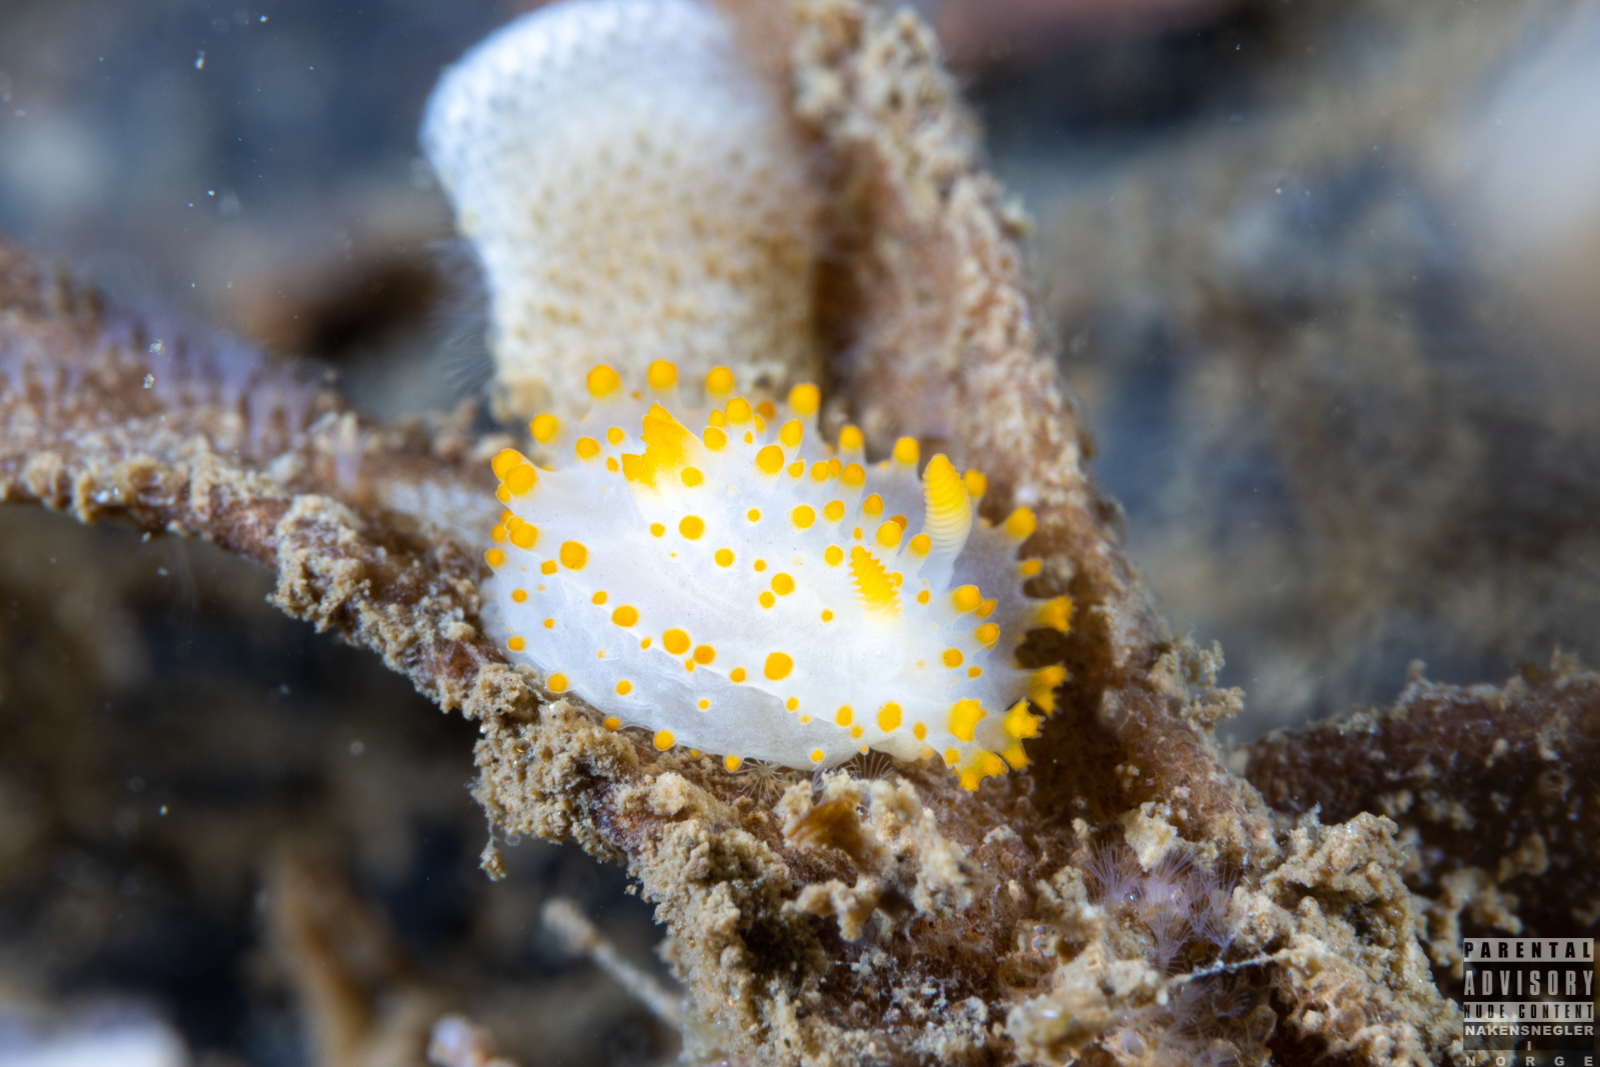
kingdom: Animalia
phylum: Mollusca
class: Gastropoda
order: Nudibranchia
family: Polyceridae
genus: Crimora
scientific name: Crimora papillata
